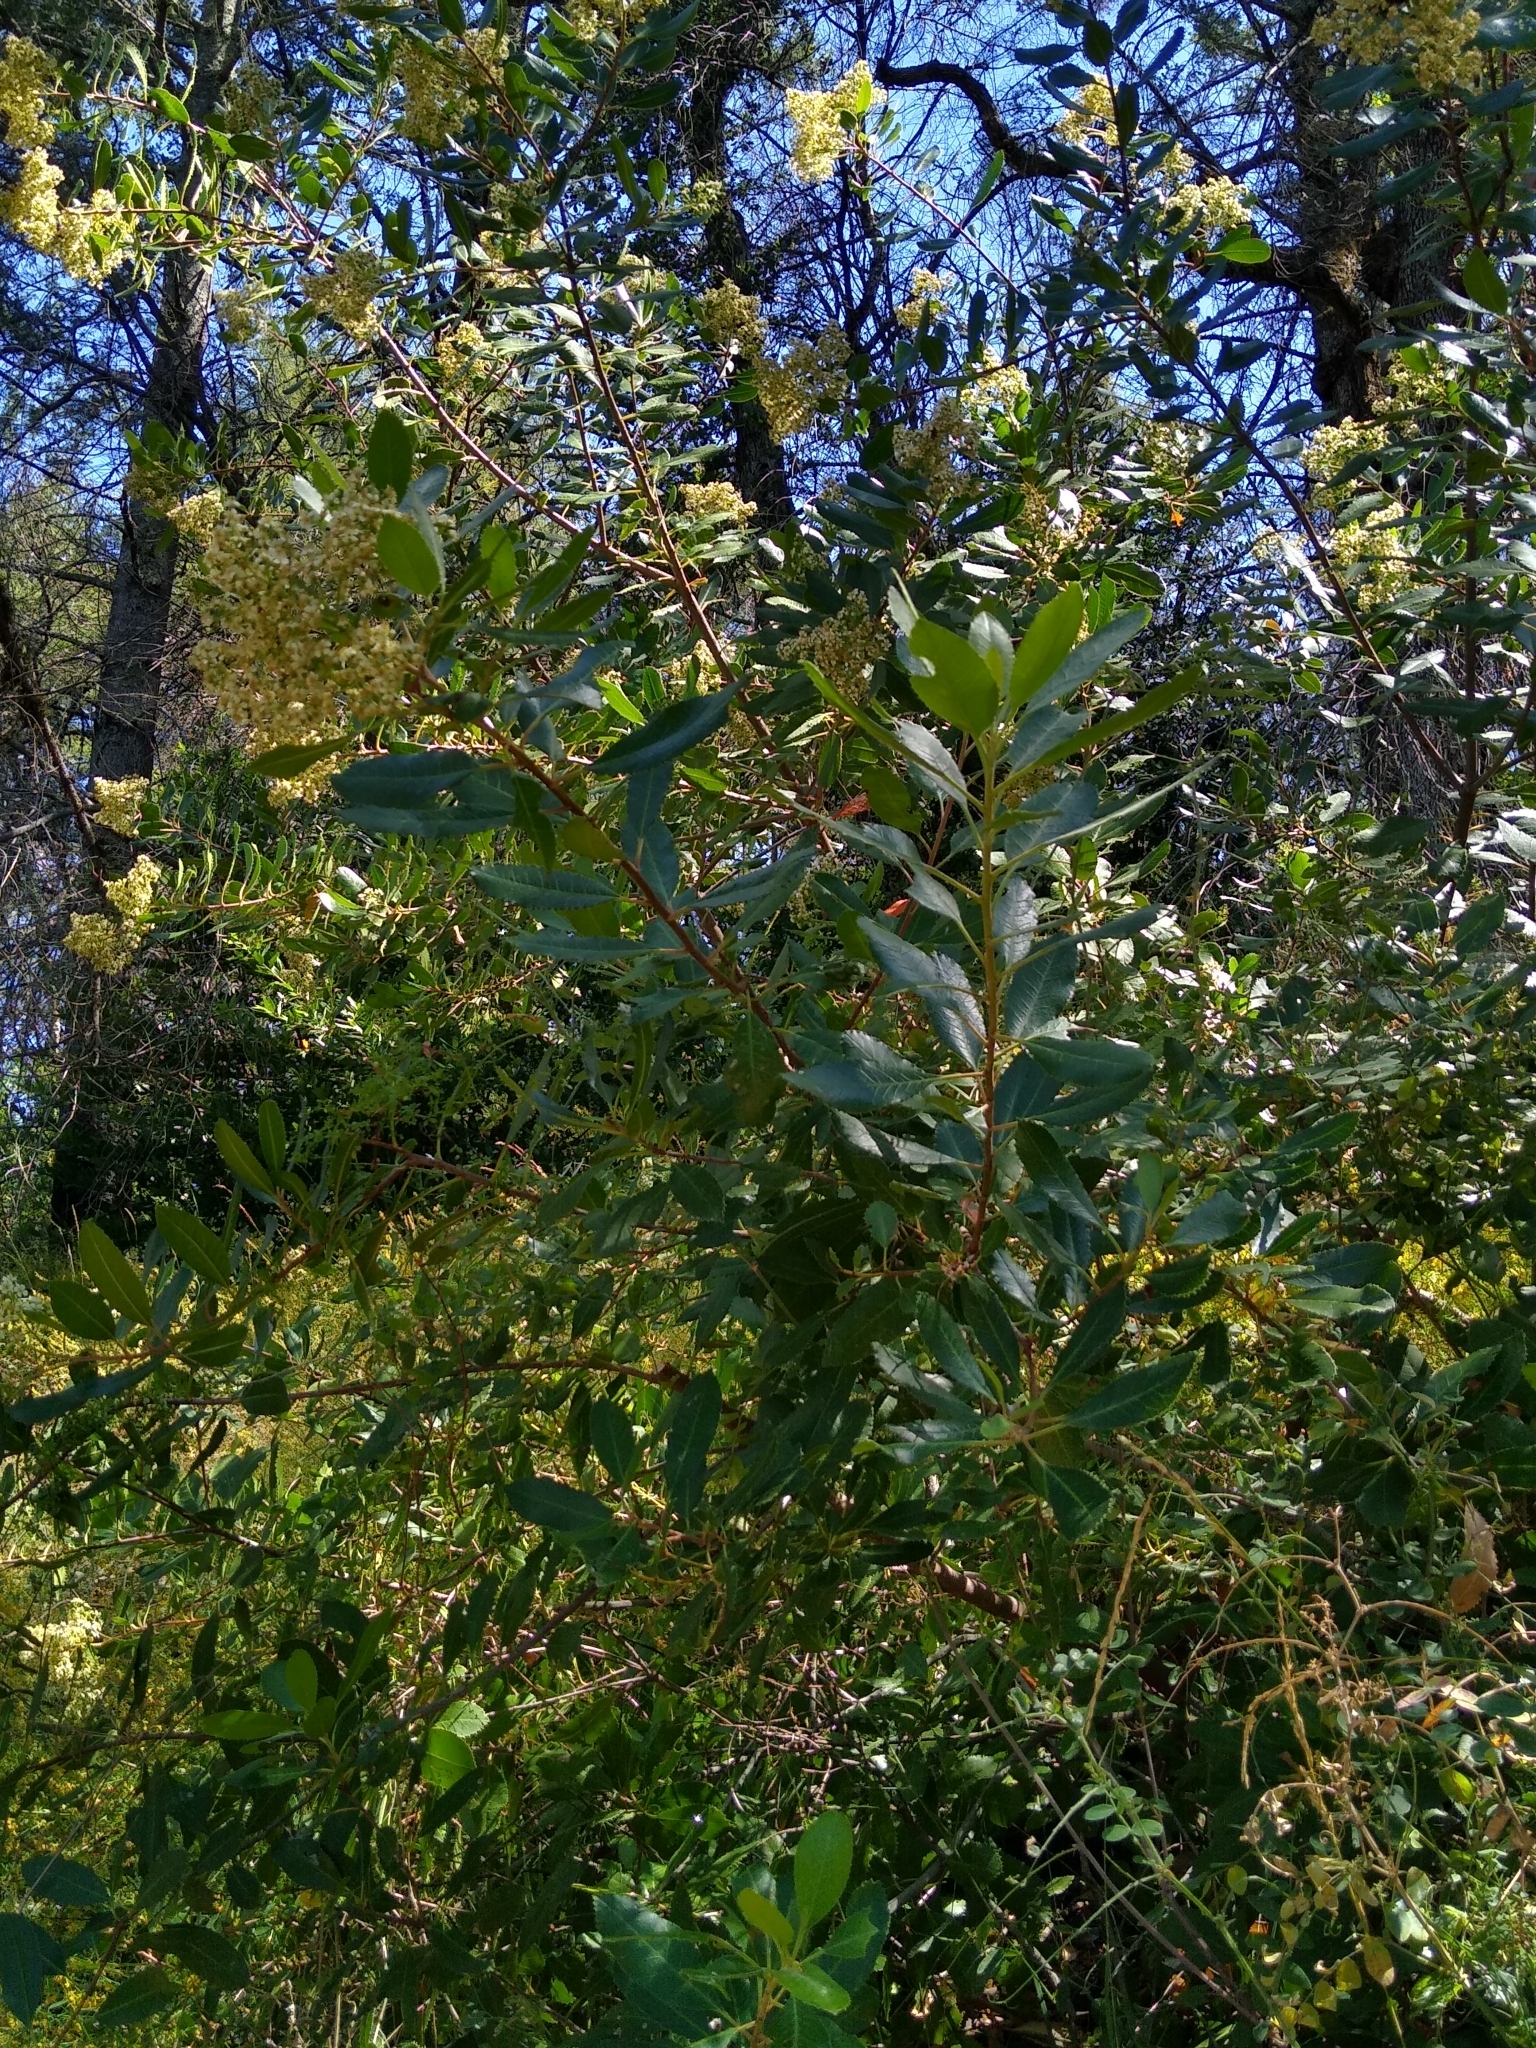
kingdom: Plantae
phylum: Tracheophyta
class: Magnoliopsida
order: Rosales
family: Rosaceae
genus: Heteromeles
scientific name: Heteromeles arbutifolia
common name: California-holly
